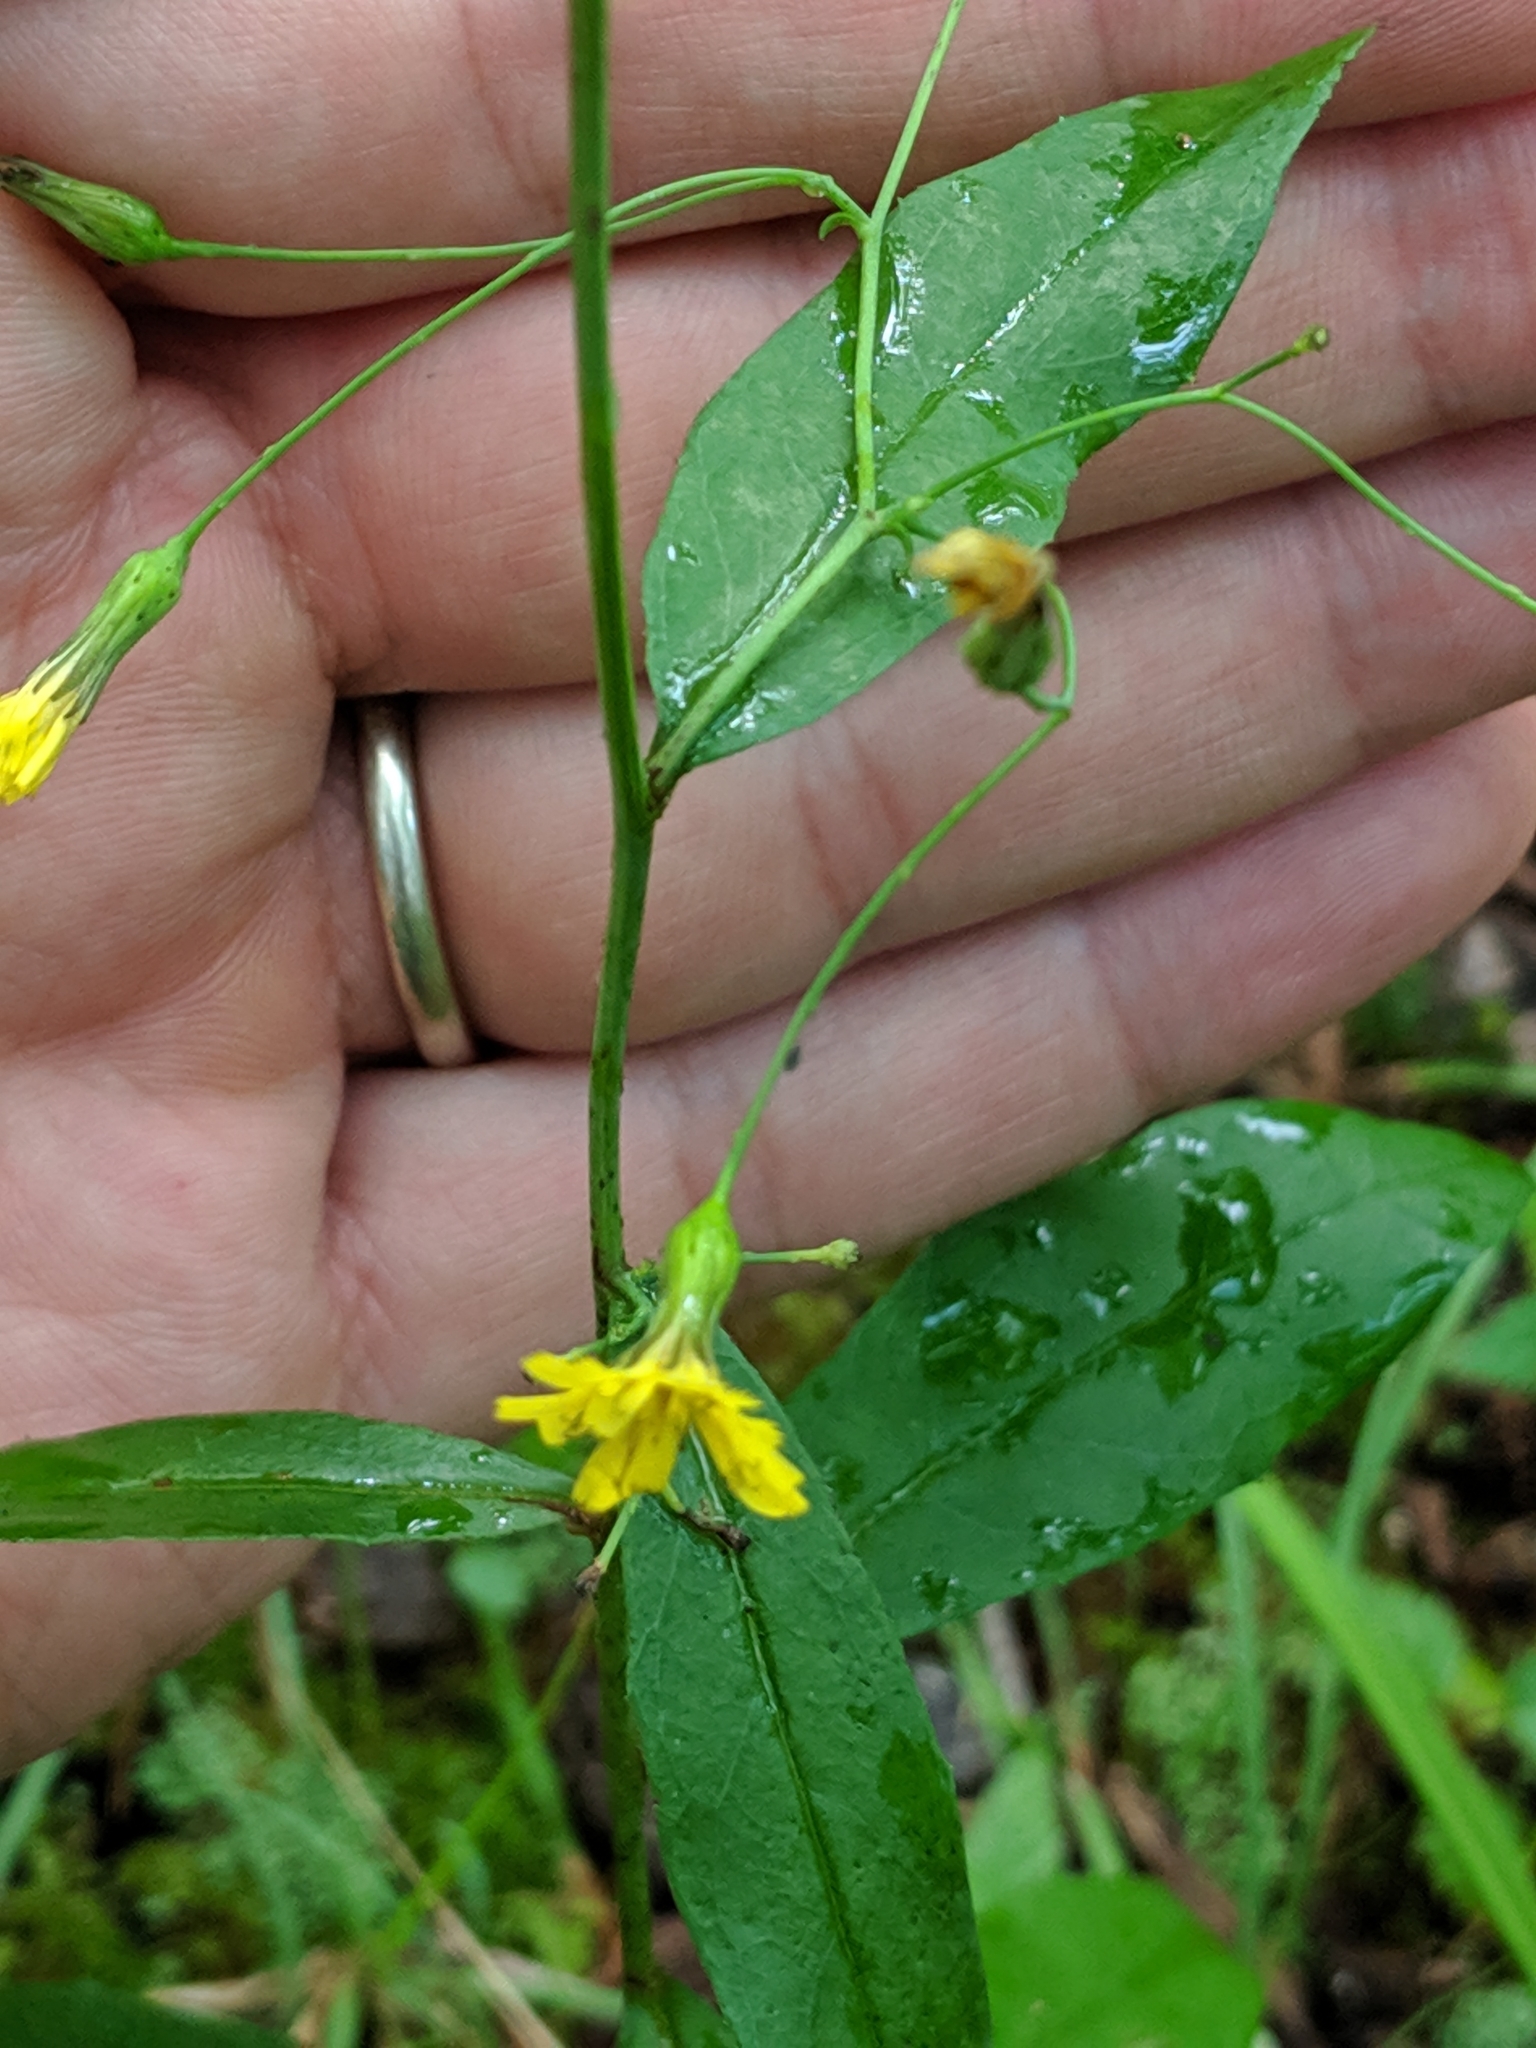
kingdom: Plantae
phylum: Tracheophyta
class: Magnoliopsida
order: Asterales
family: Asteraceae
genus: Hieracium
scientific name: Hieracium paniculatum
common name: Allegheny hawkweed
